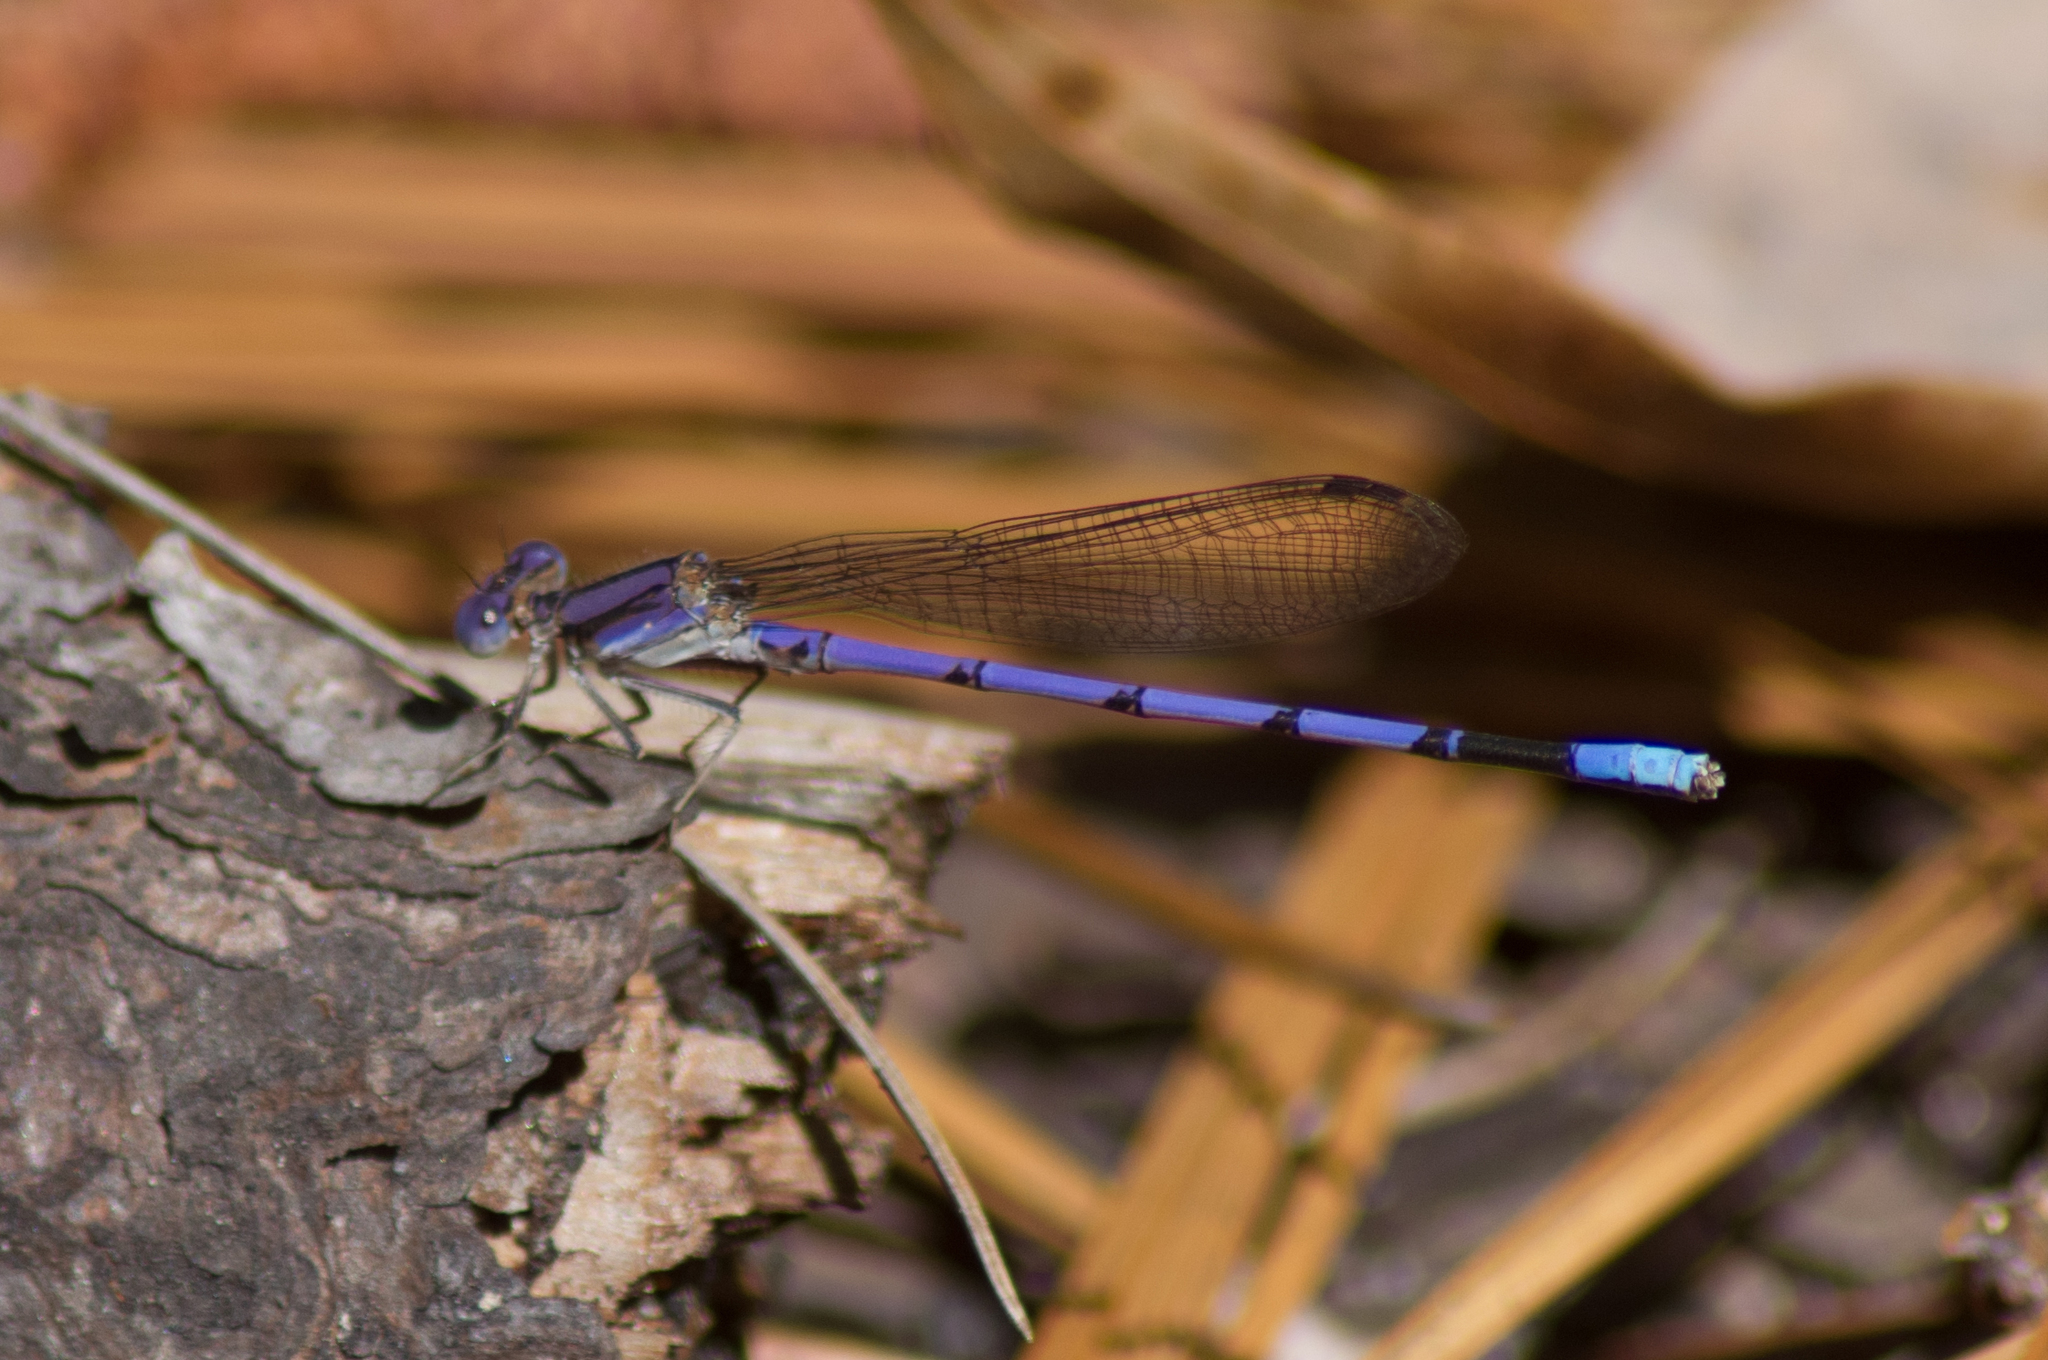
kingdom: Animalia
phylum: Arthropoda
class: Insecta
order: Odonata
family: Coenagrionidae
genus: Argia
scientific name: Argia fumipennis
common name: Variable dancer
